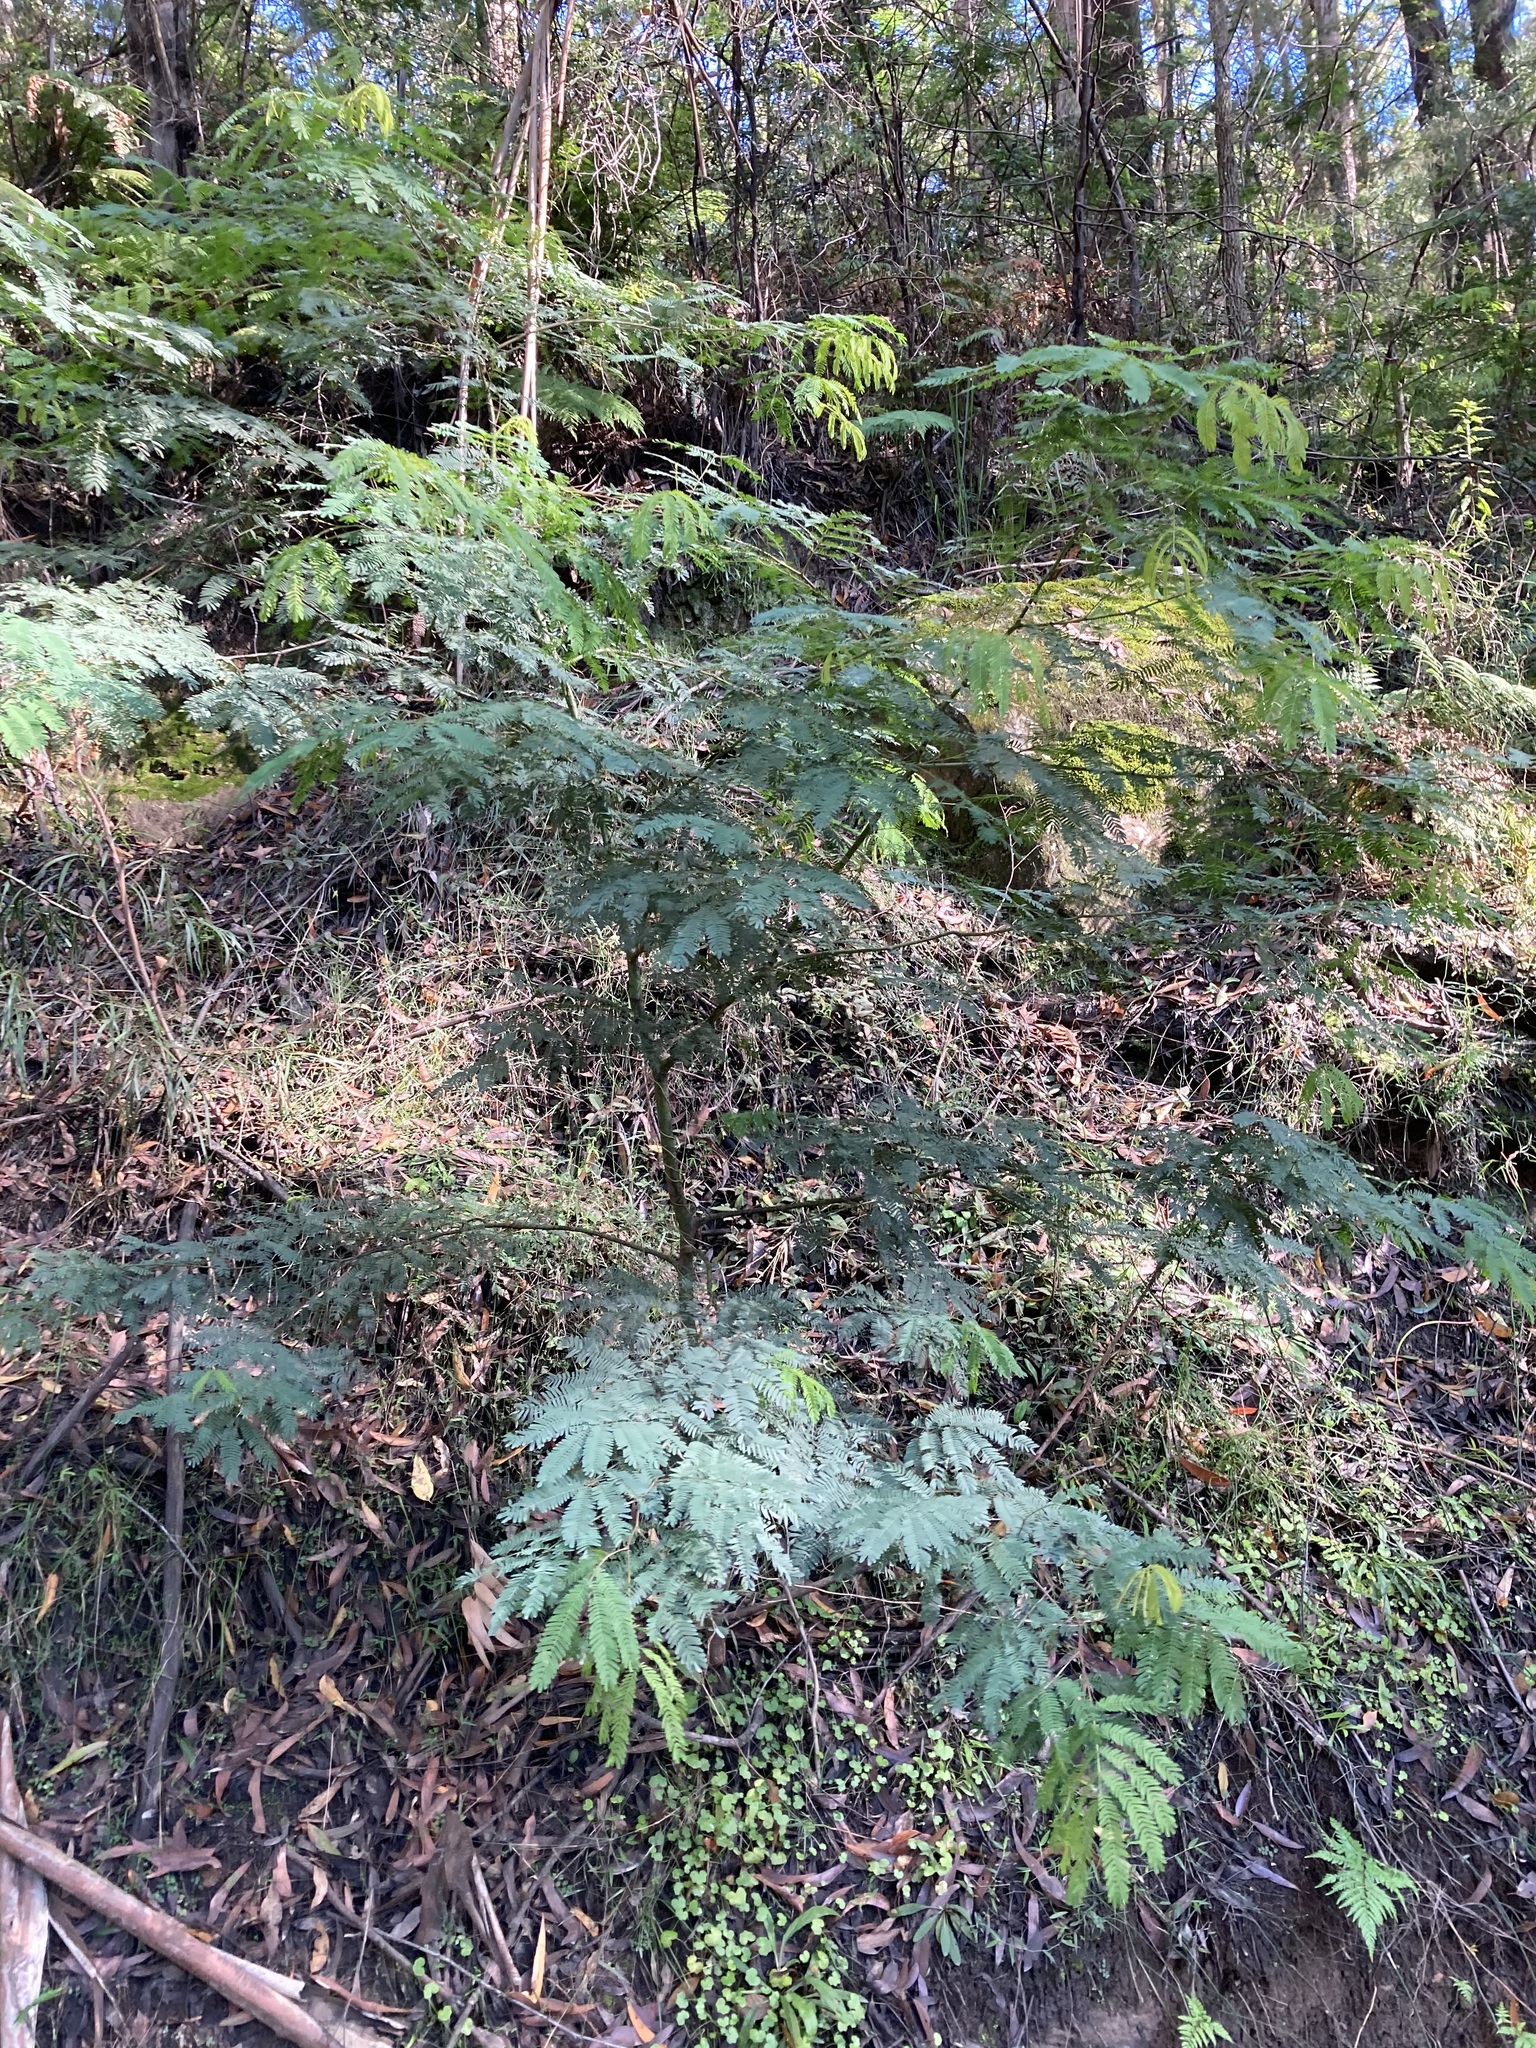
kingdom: Plantae
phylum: Tracheophyta
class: Magnoliopsida
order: Fabales
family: Fabaceae
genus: Acacia
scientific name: Acacia schinoides
